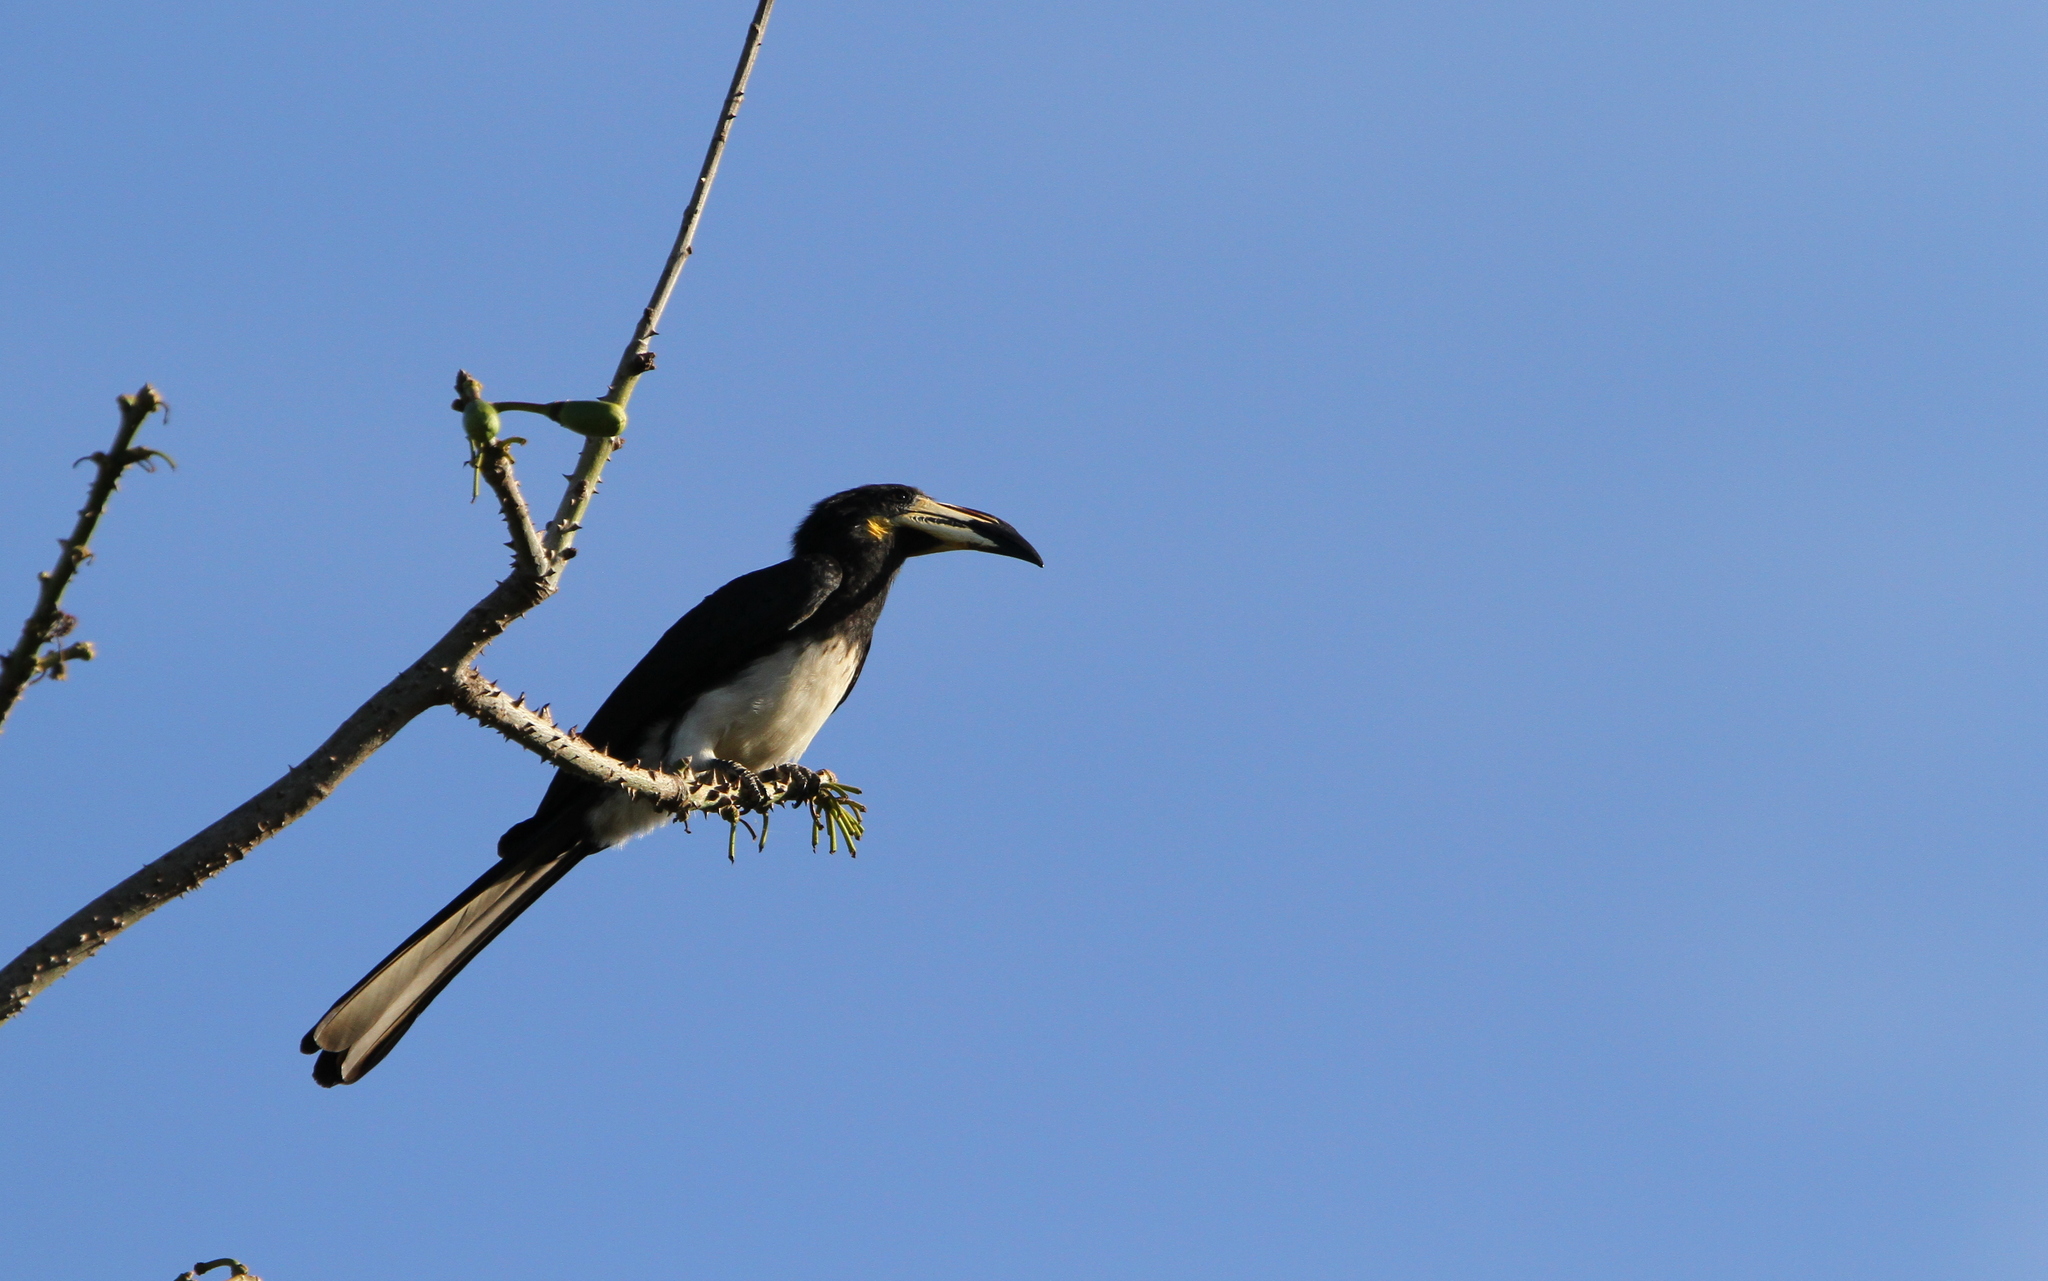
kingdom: Animalia
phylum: Chordata
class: Aves
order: Bucerotiformes
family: Bucerotidae
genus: Lophoceros
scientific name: Lophoceros fasciatus
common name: African pied hornbill
